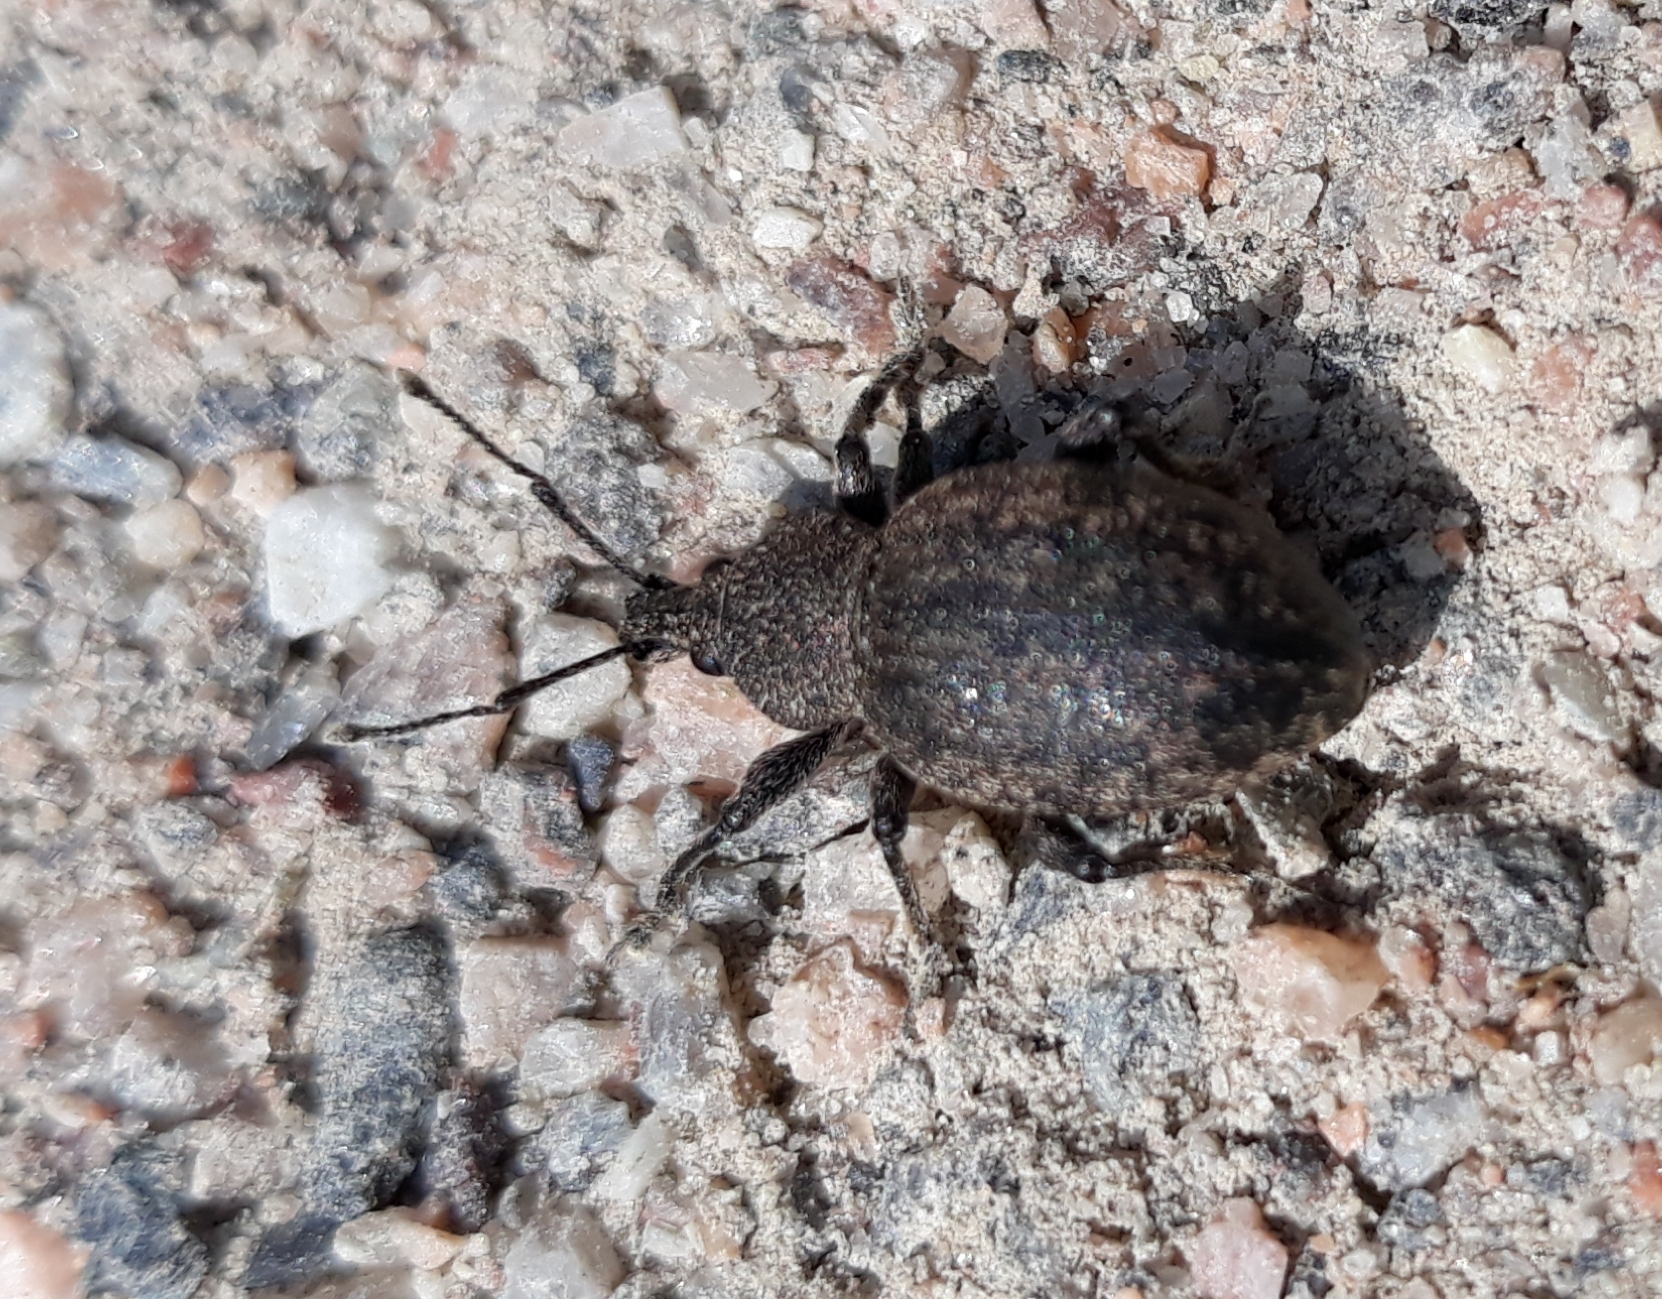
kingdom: Animalia
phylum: Arthropoda
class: Insecta
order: Coleoptera
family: Curculionidae
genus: Otiorhynchus
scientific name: Otiorhynchus ligustici
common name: Weevil
